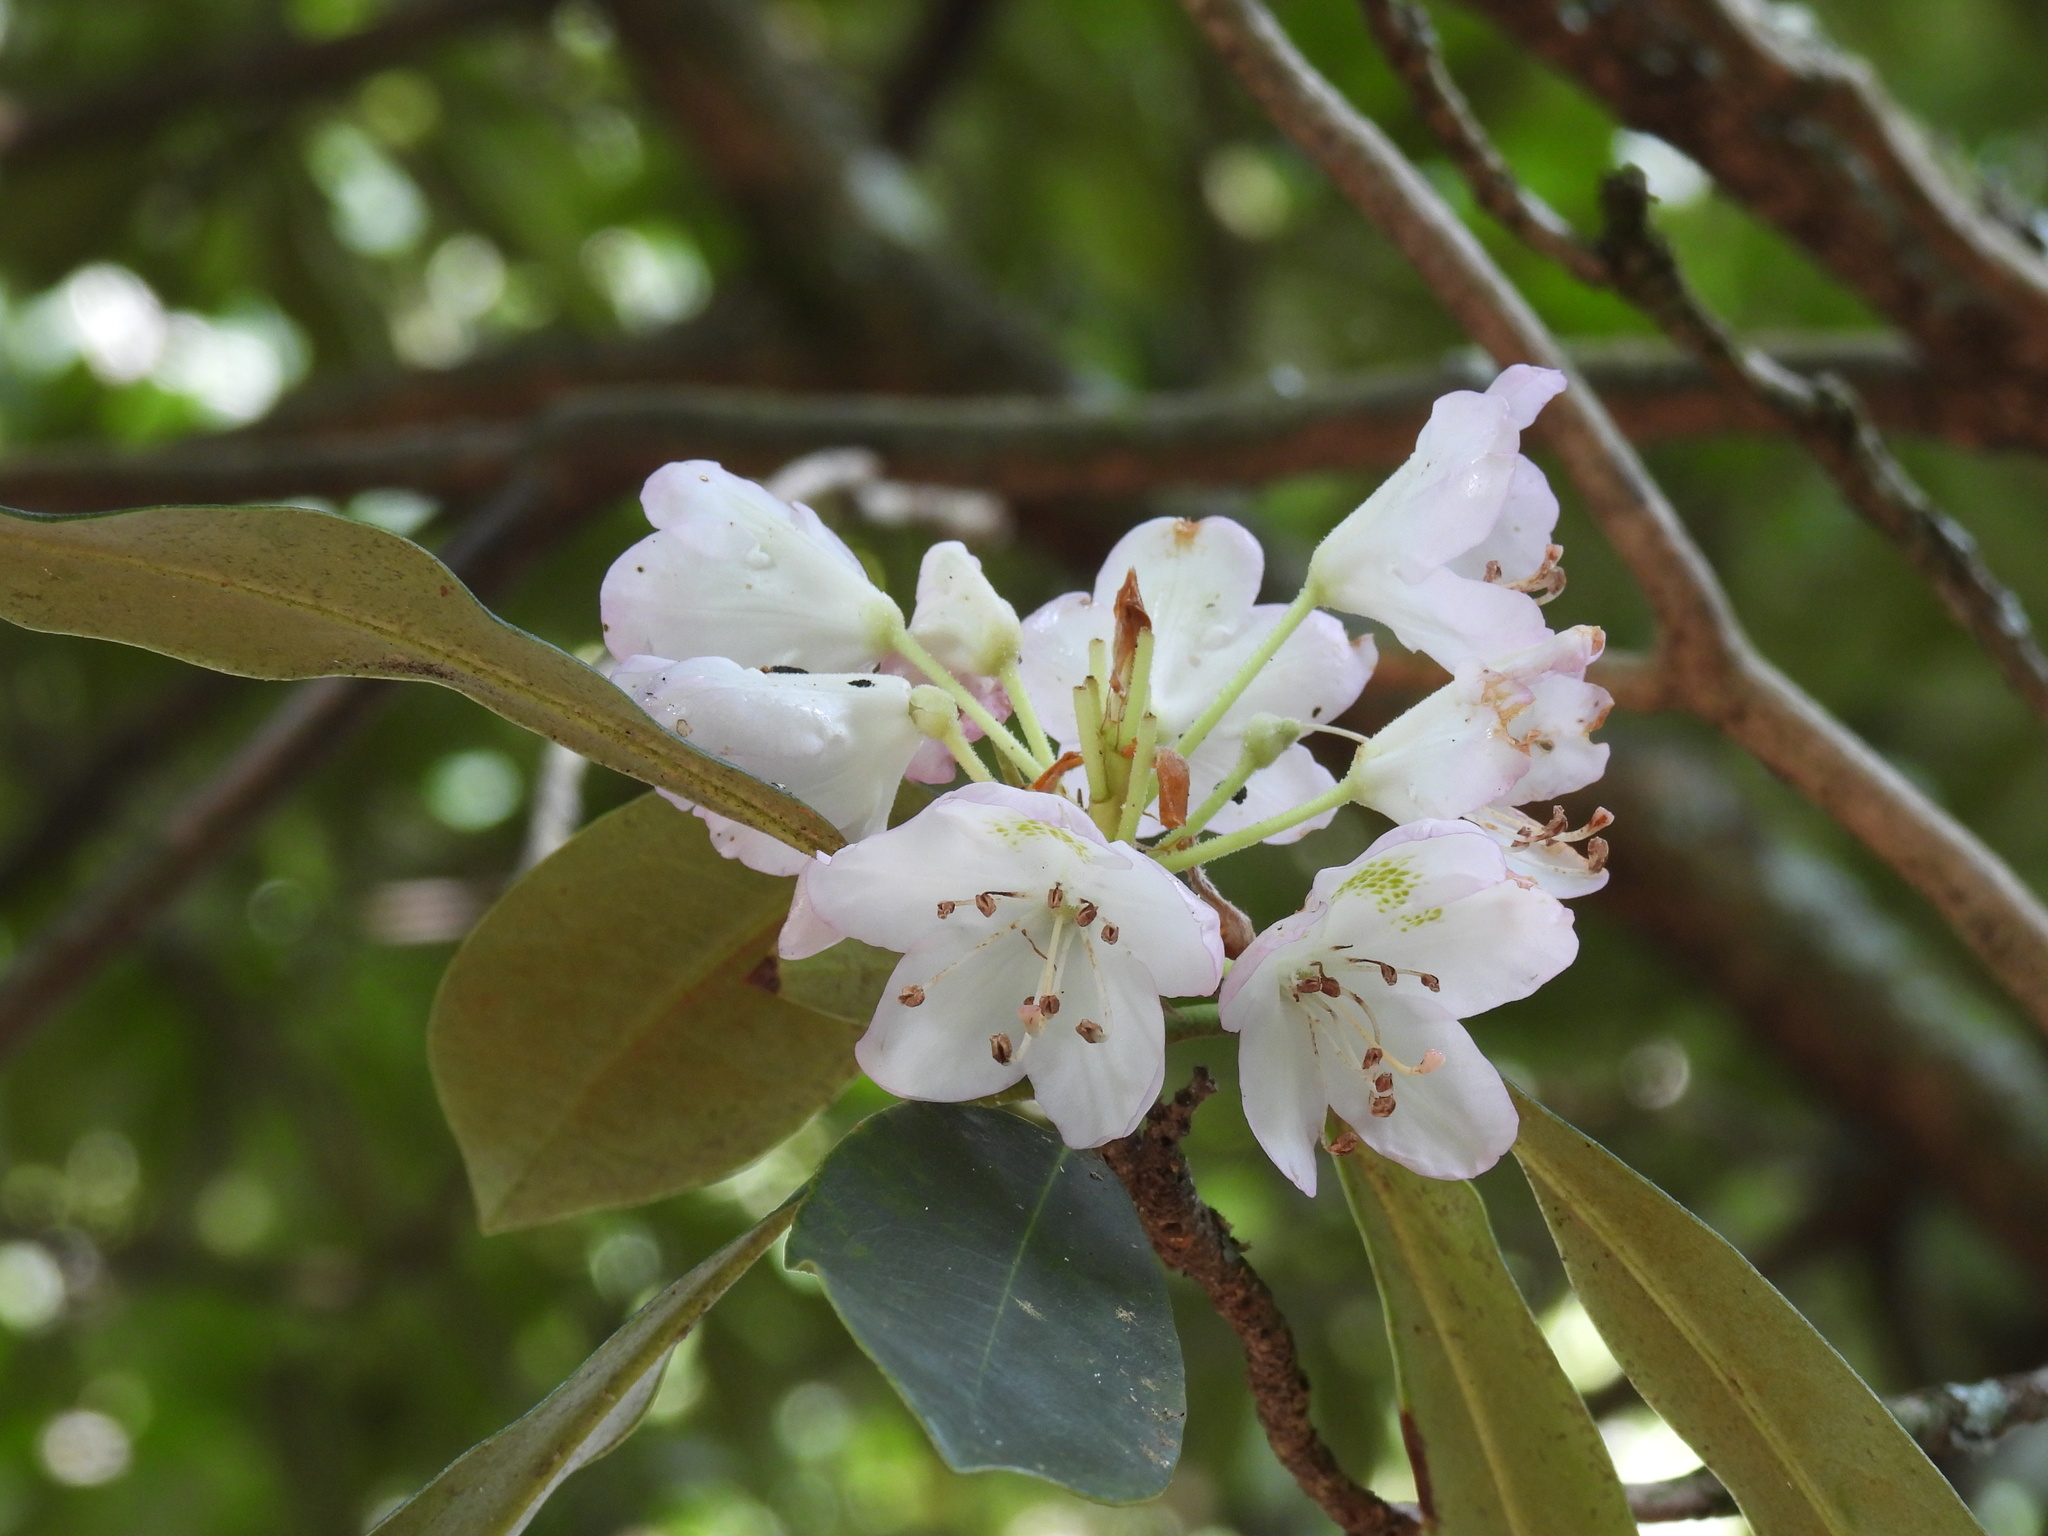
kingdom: Plantae
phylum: Tracheophyta
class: Magnoliopsida
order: Ericales
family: Ericaceae
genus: Rhododendron
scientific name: Rhododendron maximum
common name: Great rhododendron
